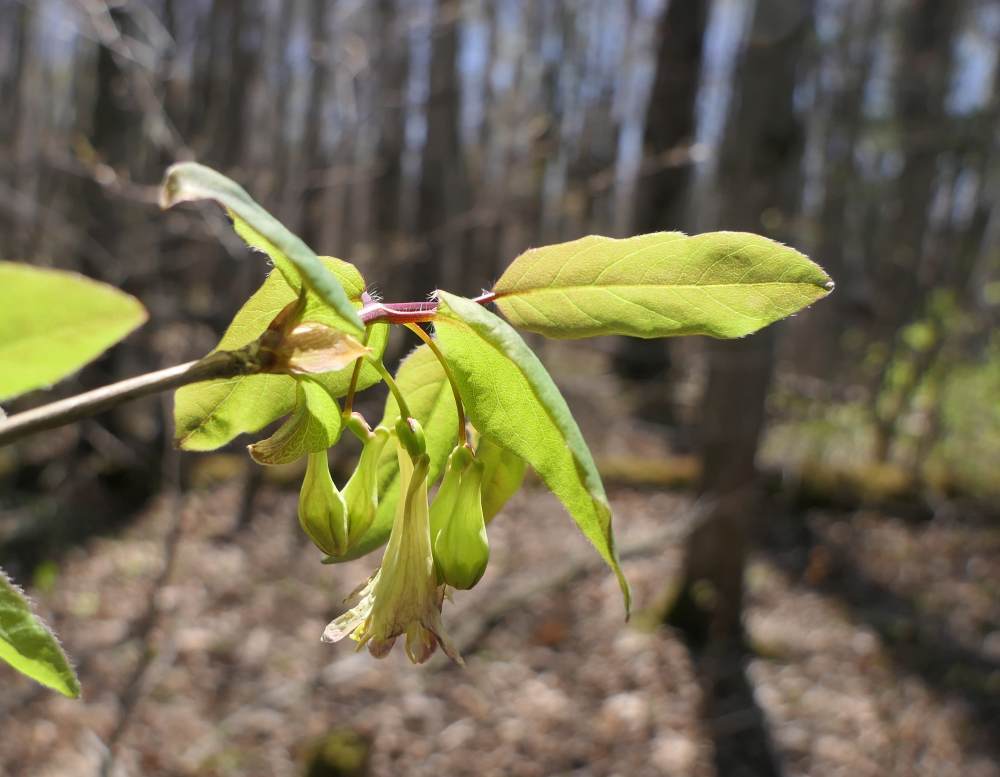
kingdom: Plantae
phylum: Tracheophyta
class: Magnoliopsida
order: Dipsacales
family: Caprifoliaceae
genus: Lonicera
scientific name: Lonicera canadensis
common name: American fly-honeysuckle
